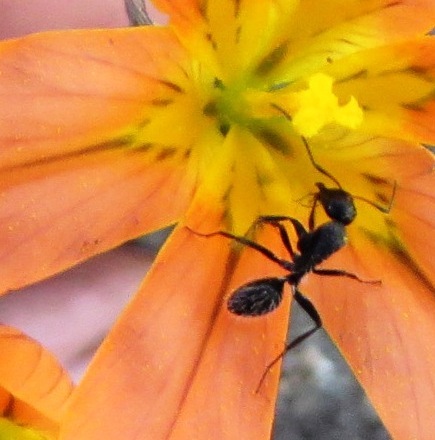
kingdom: Animalia
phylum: Arthropoda
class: Insecta
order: Hymenoptera
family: Formicidae
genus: Camponotus
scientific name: Camponotus niveosetosus
